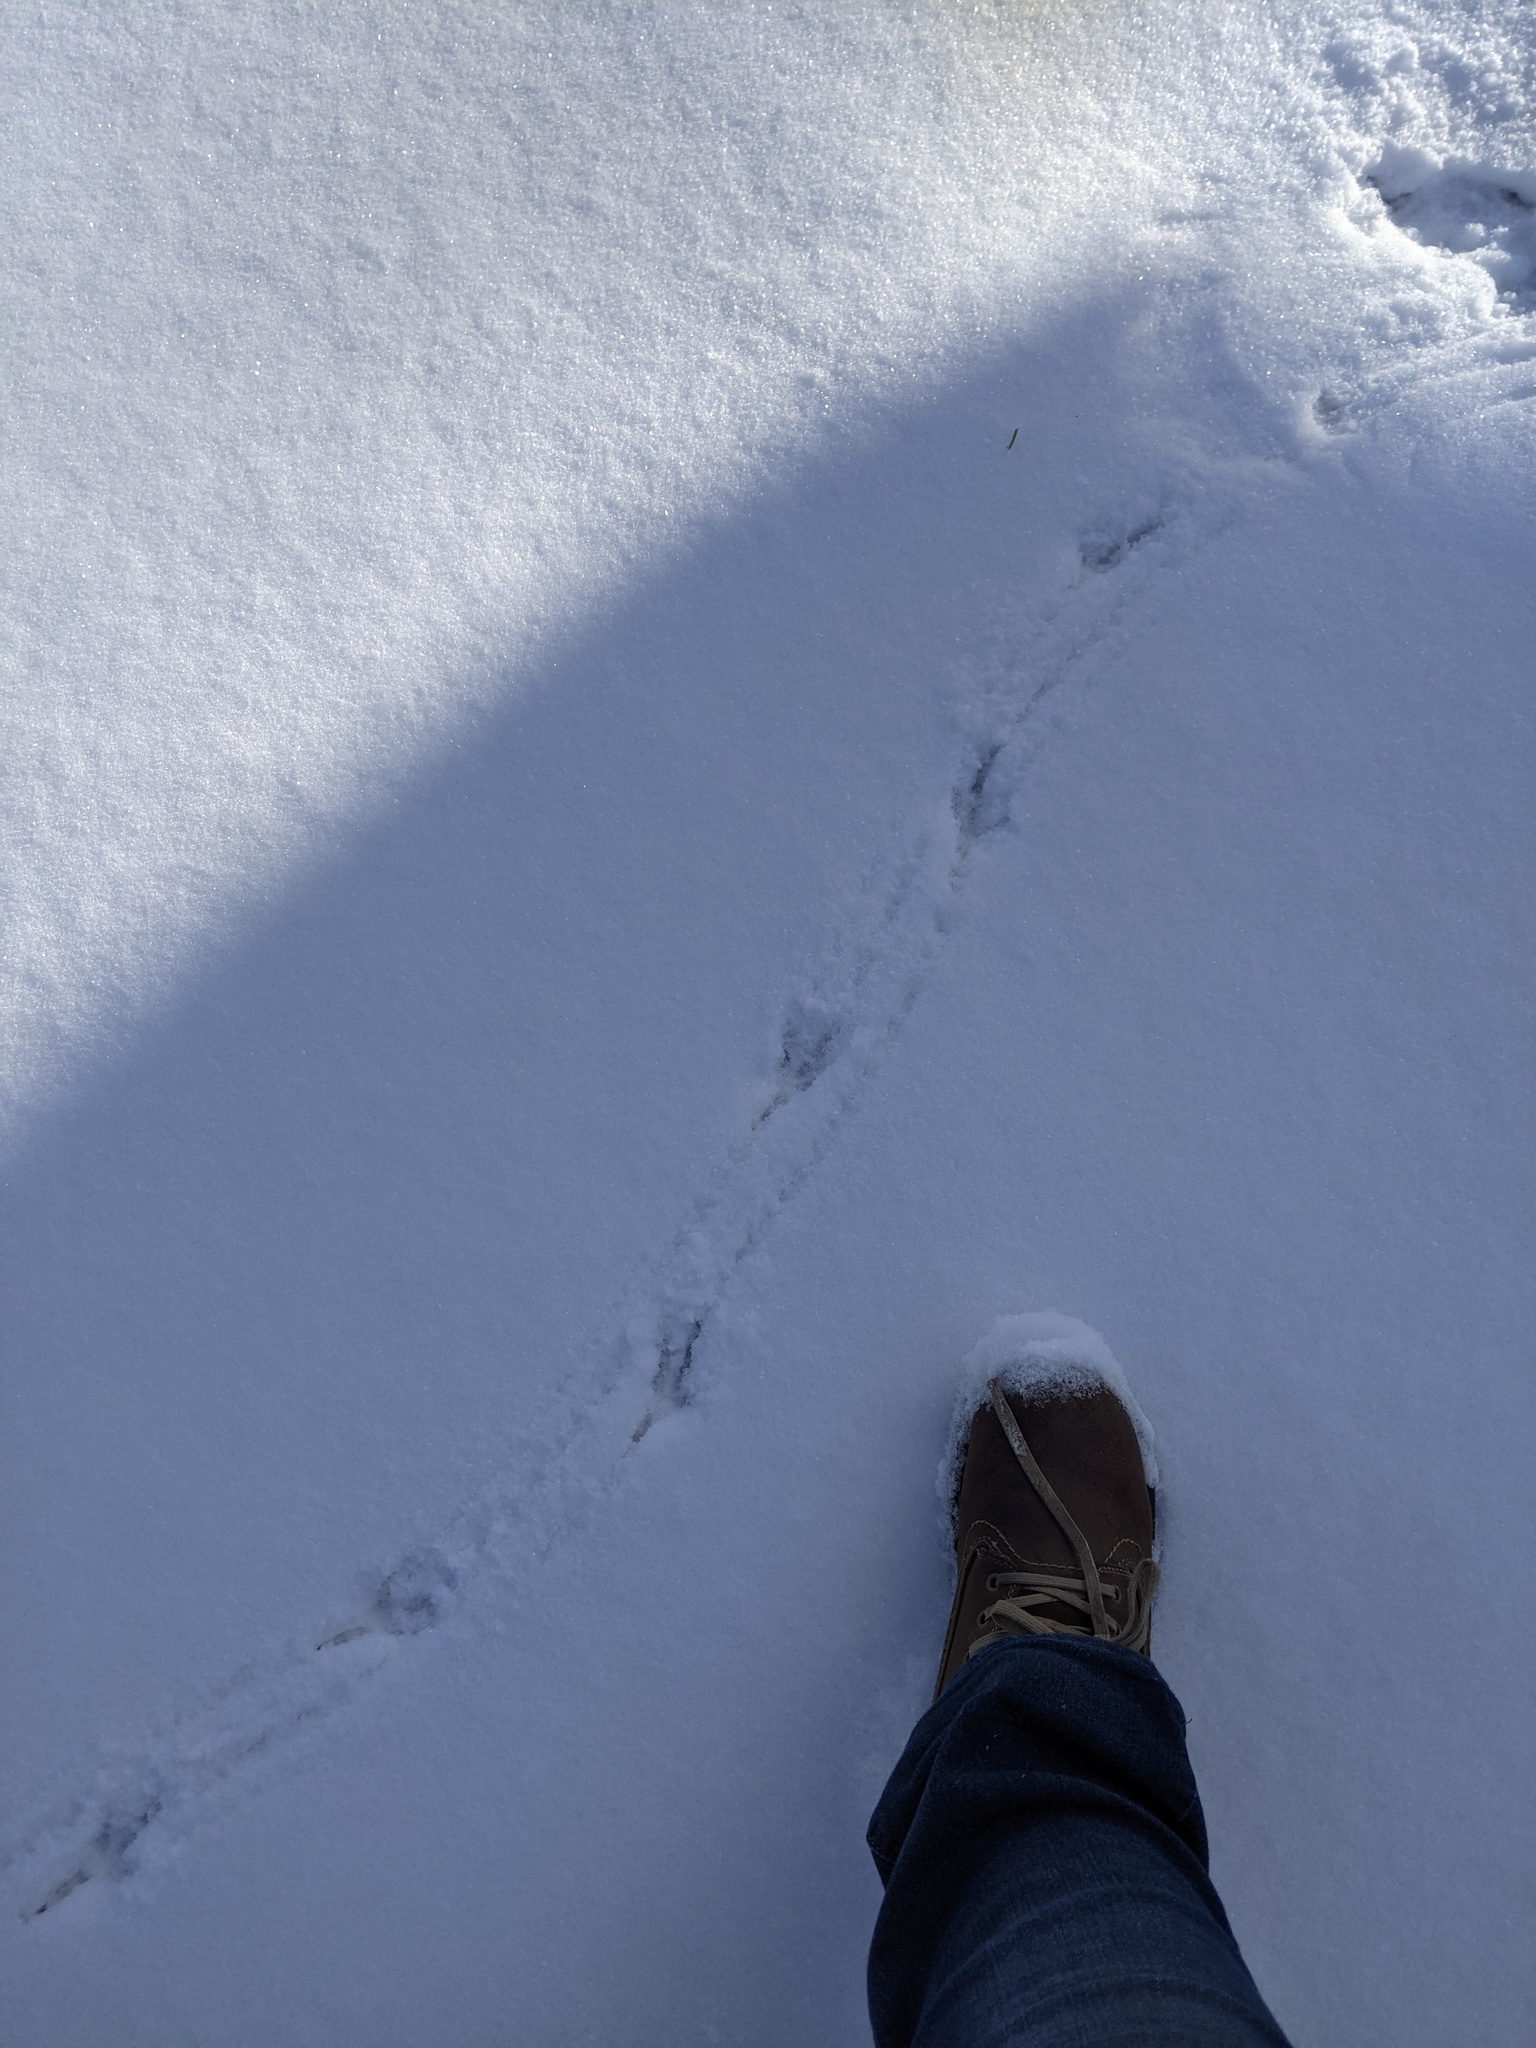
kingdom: Animalia
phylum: Chordata
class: Aves
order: Passeriformes
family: Corvidae
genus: Corvus
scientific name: Corvus brachyrhynchos
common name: American crow
